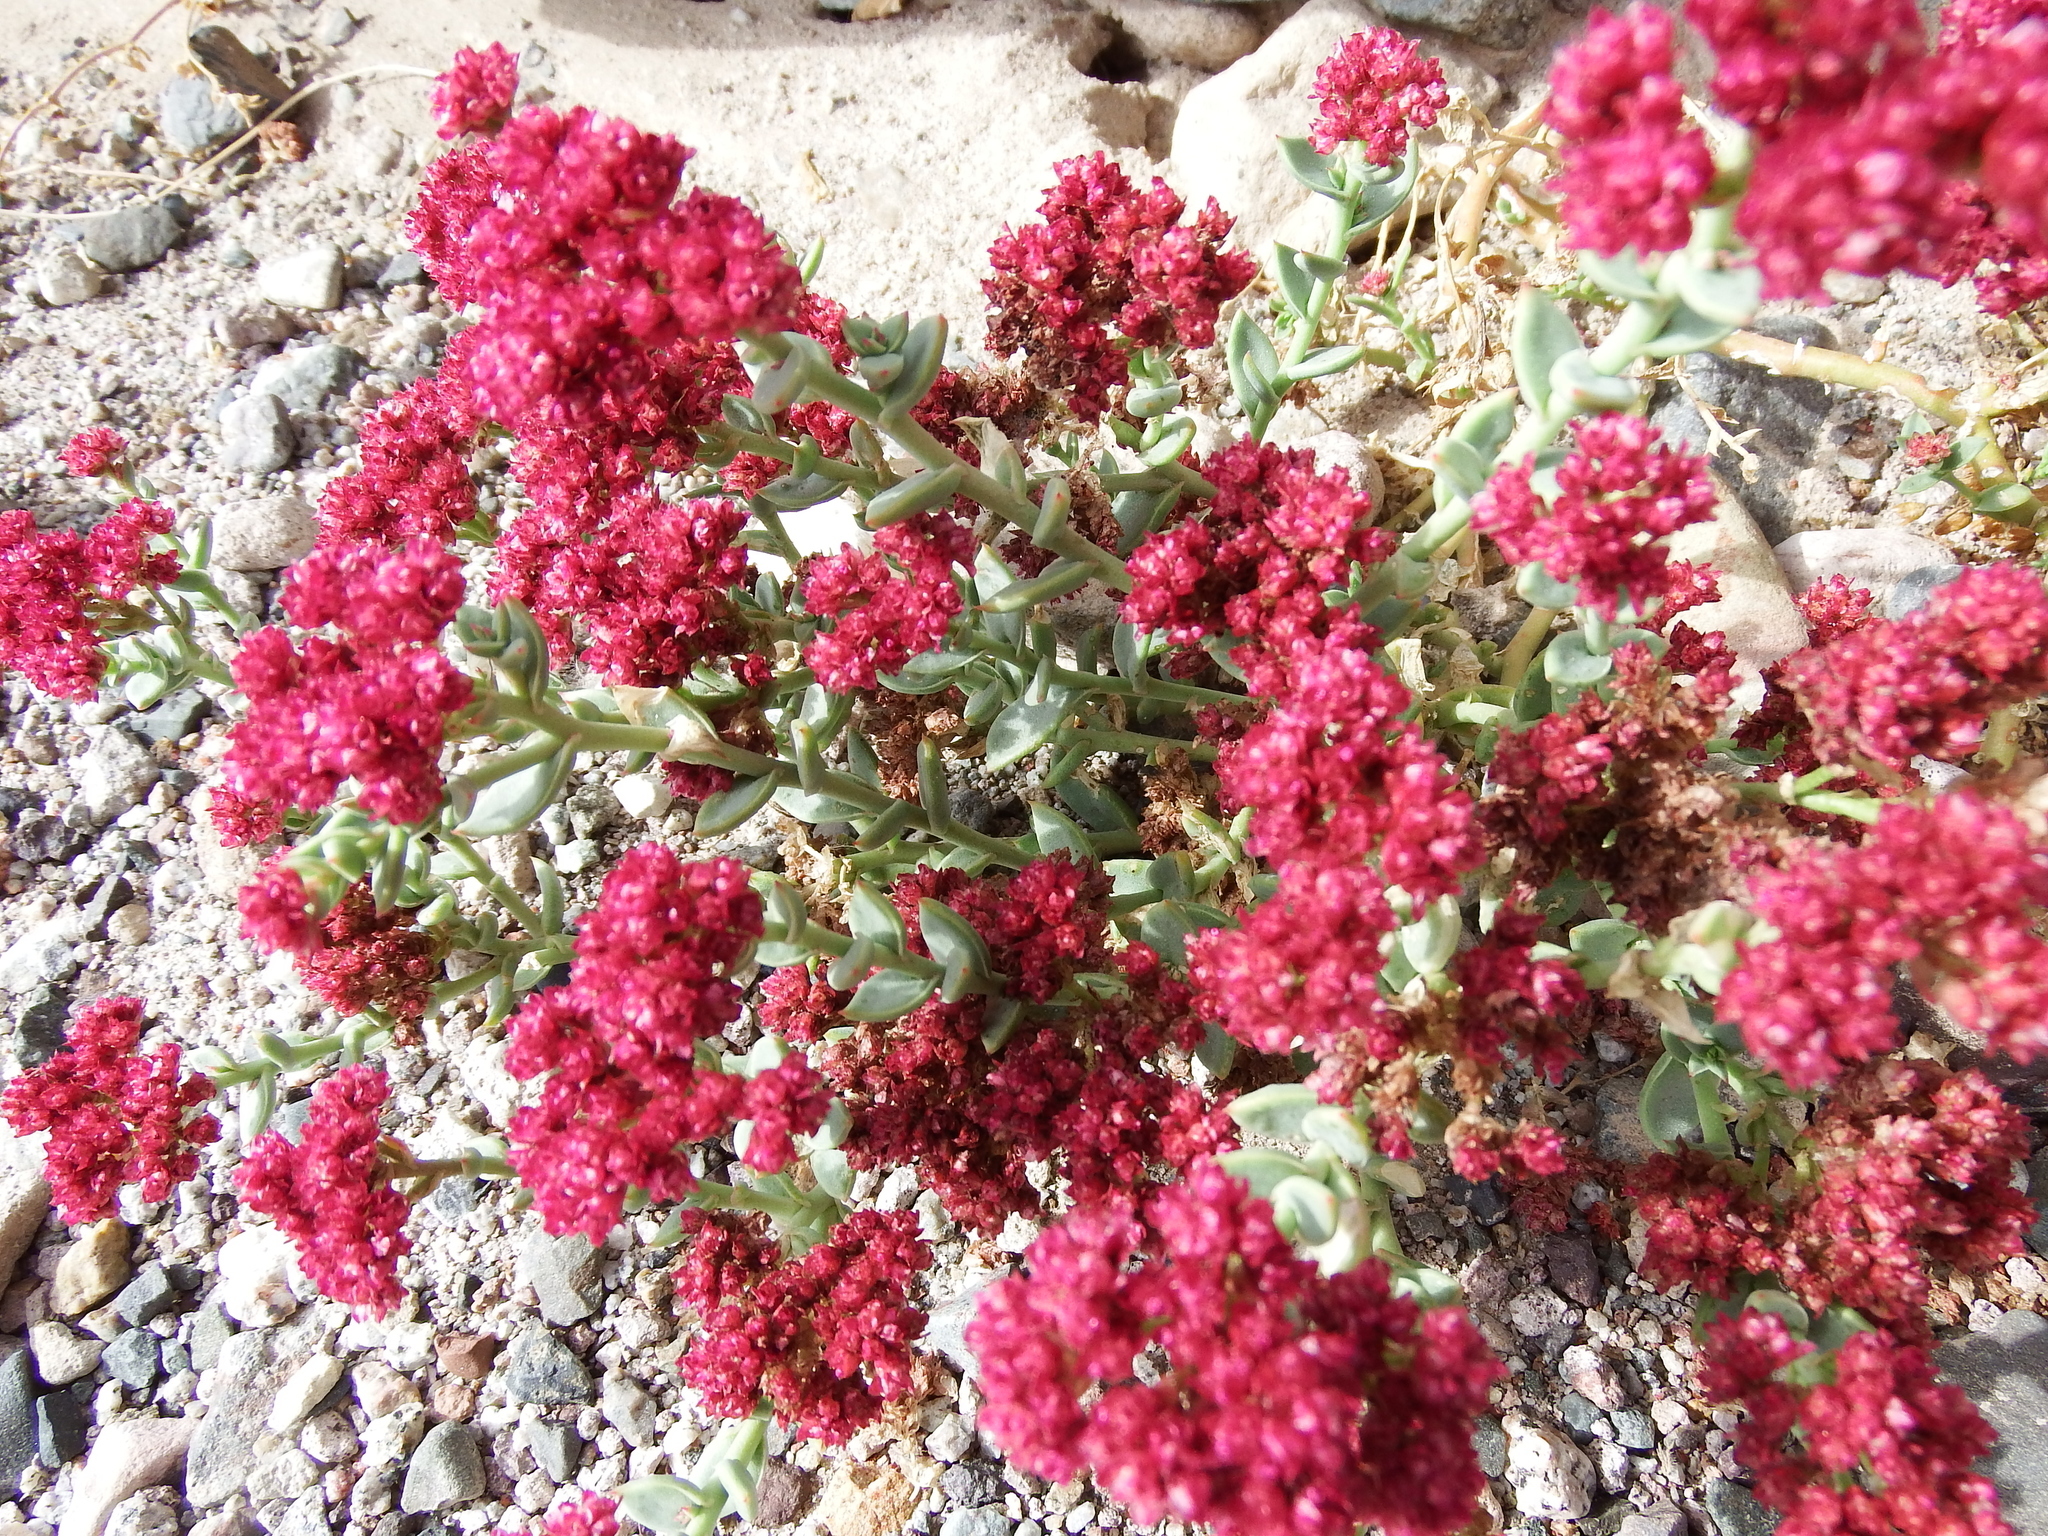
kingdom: Plantae
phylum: Tracheophyta
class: Magnoliopsida
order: Caryophyllales
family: Montiaceae
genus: Philippiamra
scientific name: Philippiamra celosioides
